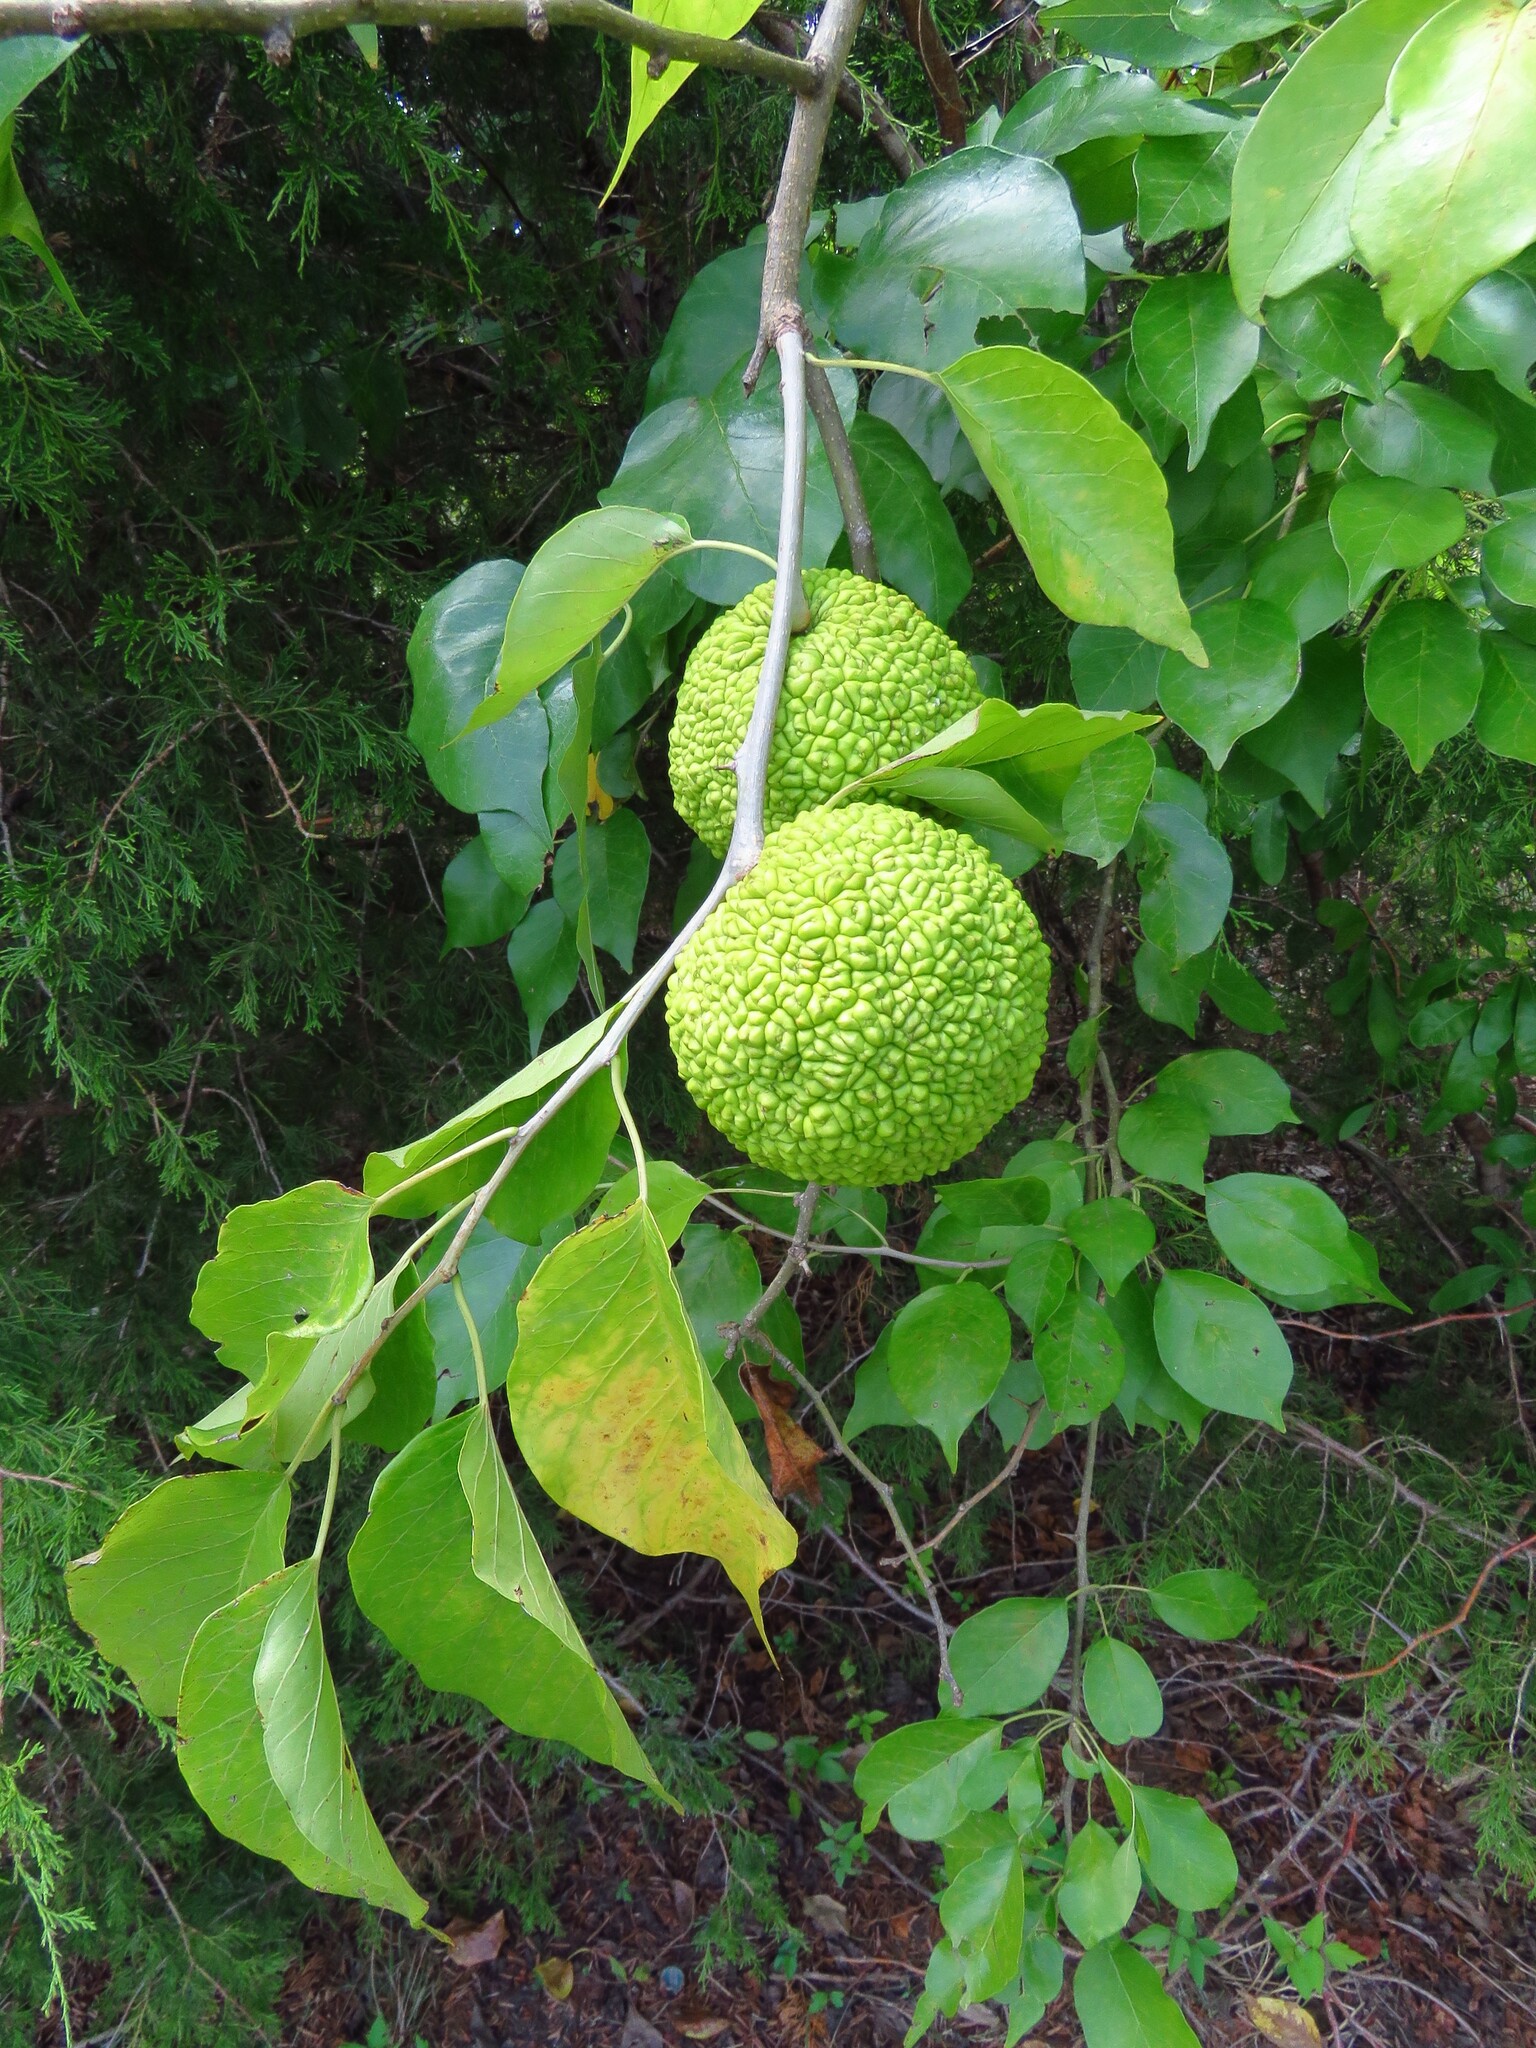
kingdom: Plantae
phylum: Tracheophyta
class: Magnoliopsida
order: Rosales
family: Moraceae
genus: Maclura
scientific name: Maclura pomifera
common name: Osage-orange
